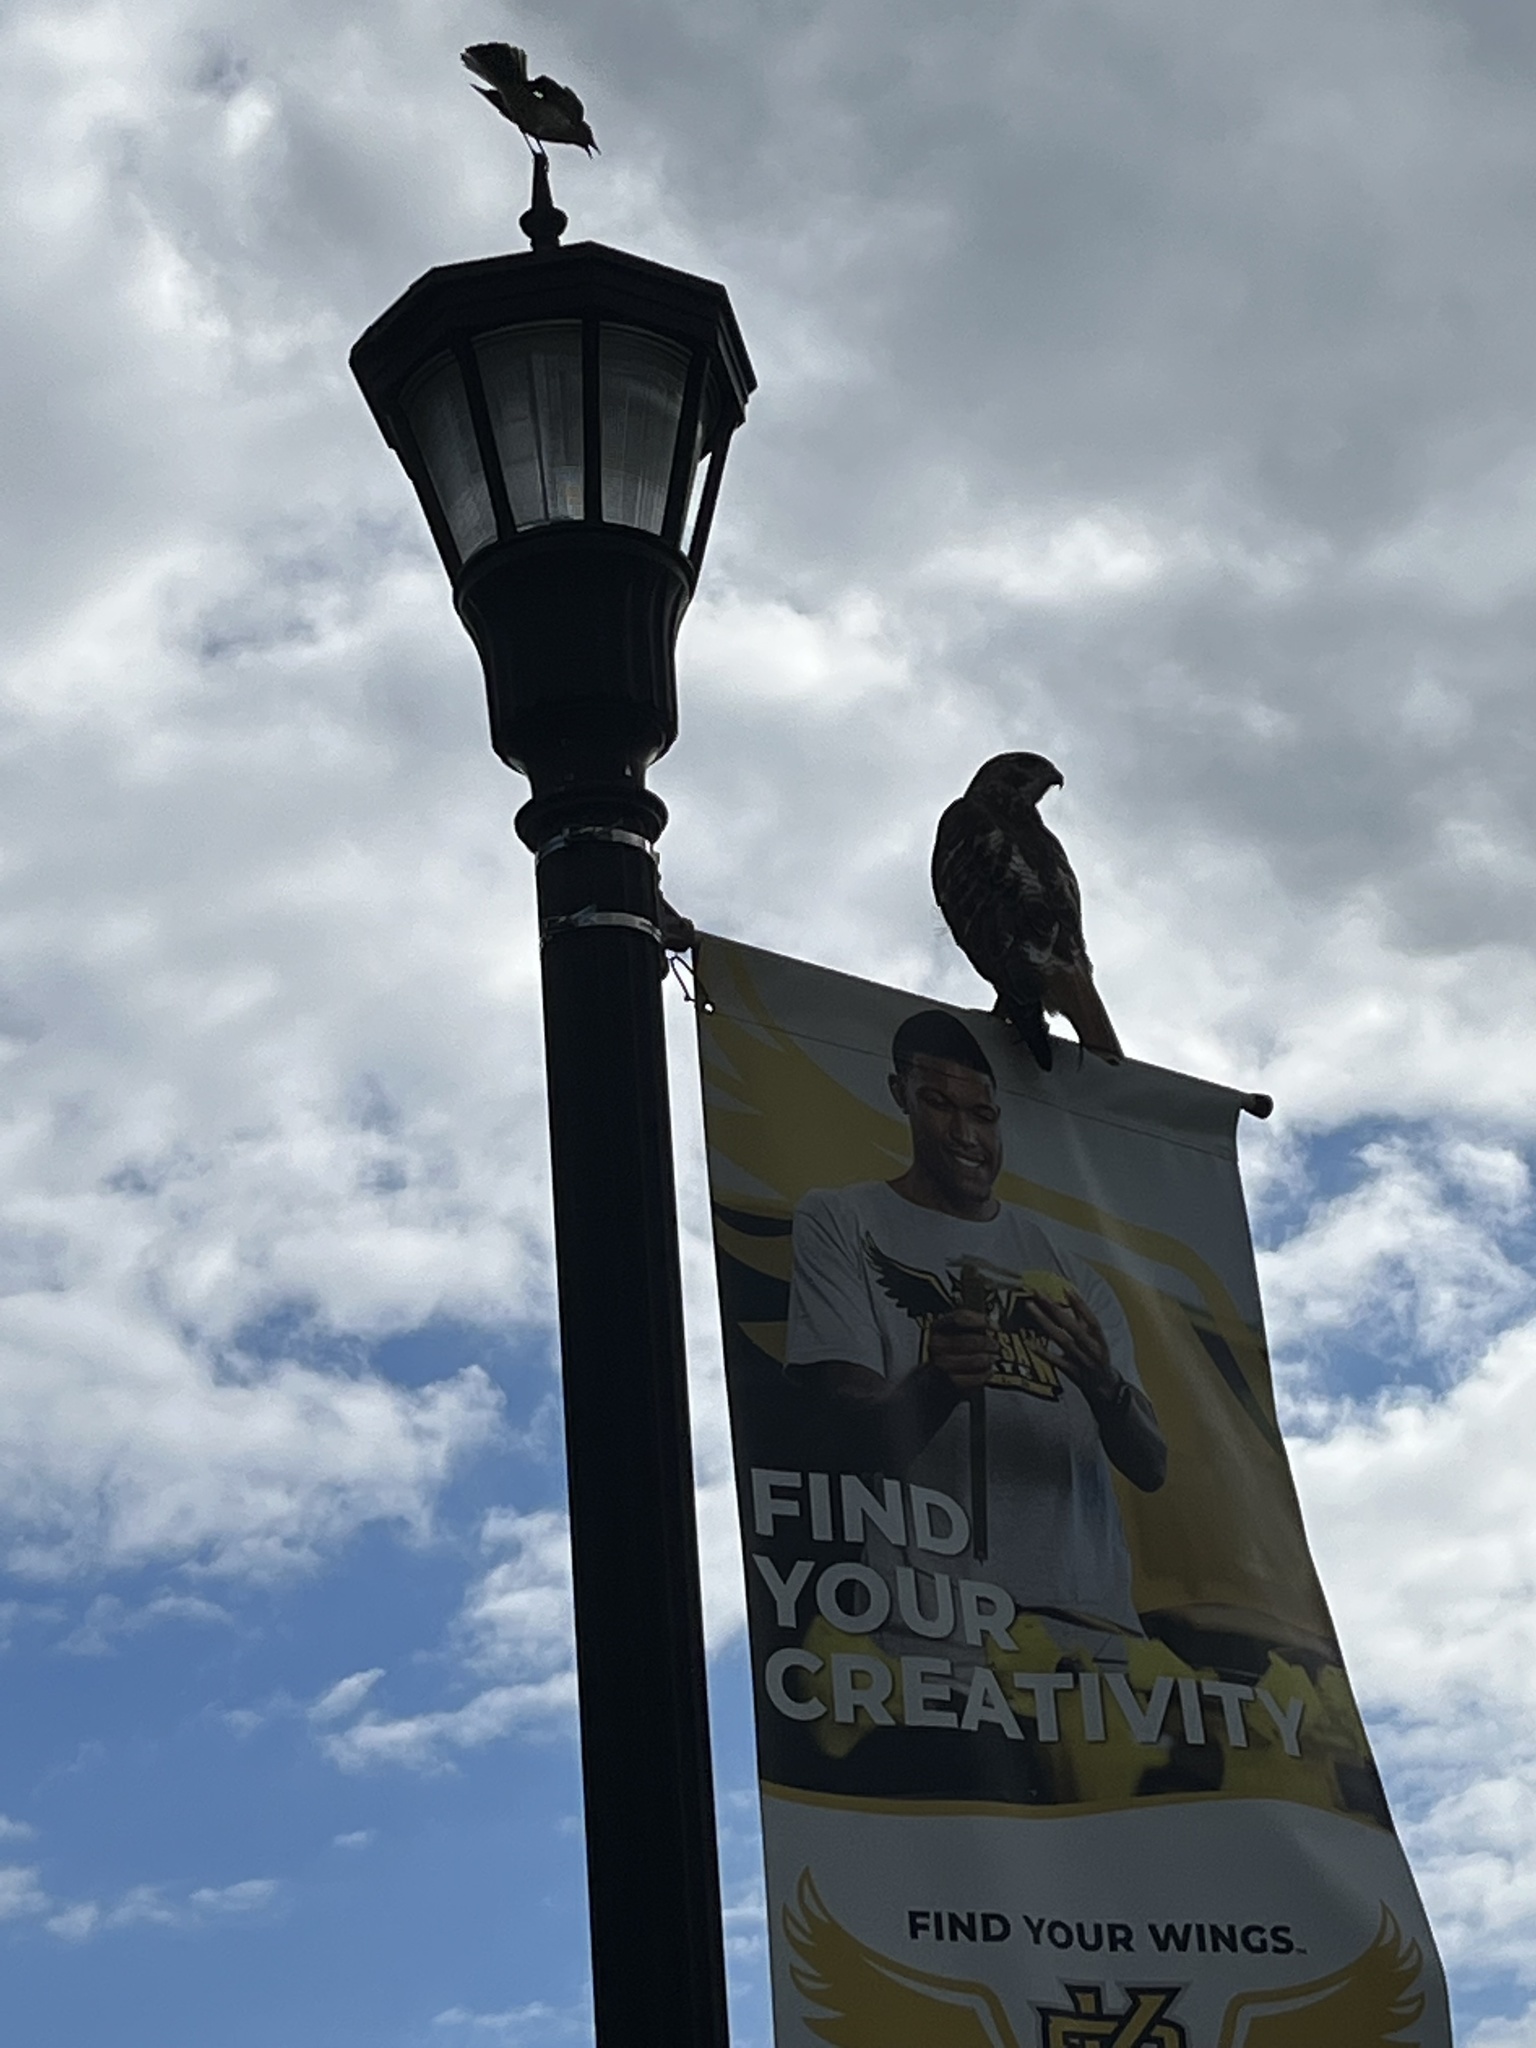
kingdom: Animalia
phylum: Chordata
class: Aves
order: Accipitriformes
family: Accipitridae
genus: Buteo
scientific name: Buteo jamaicensis
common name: Red-tailed hawk
